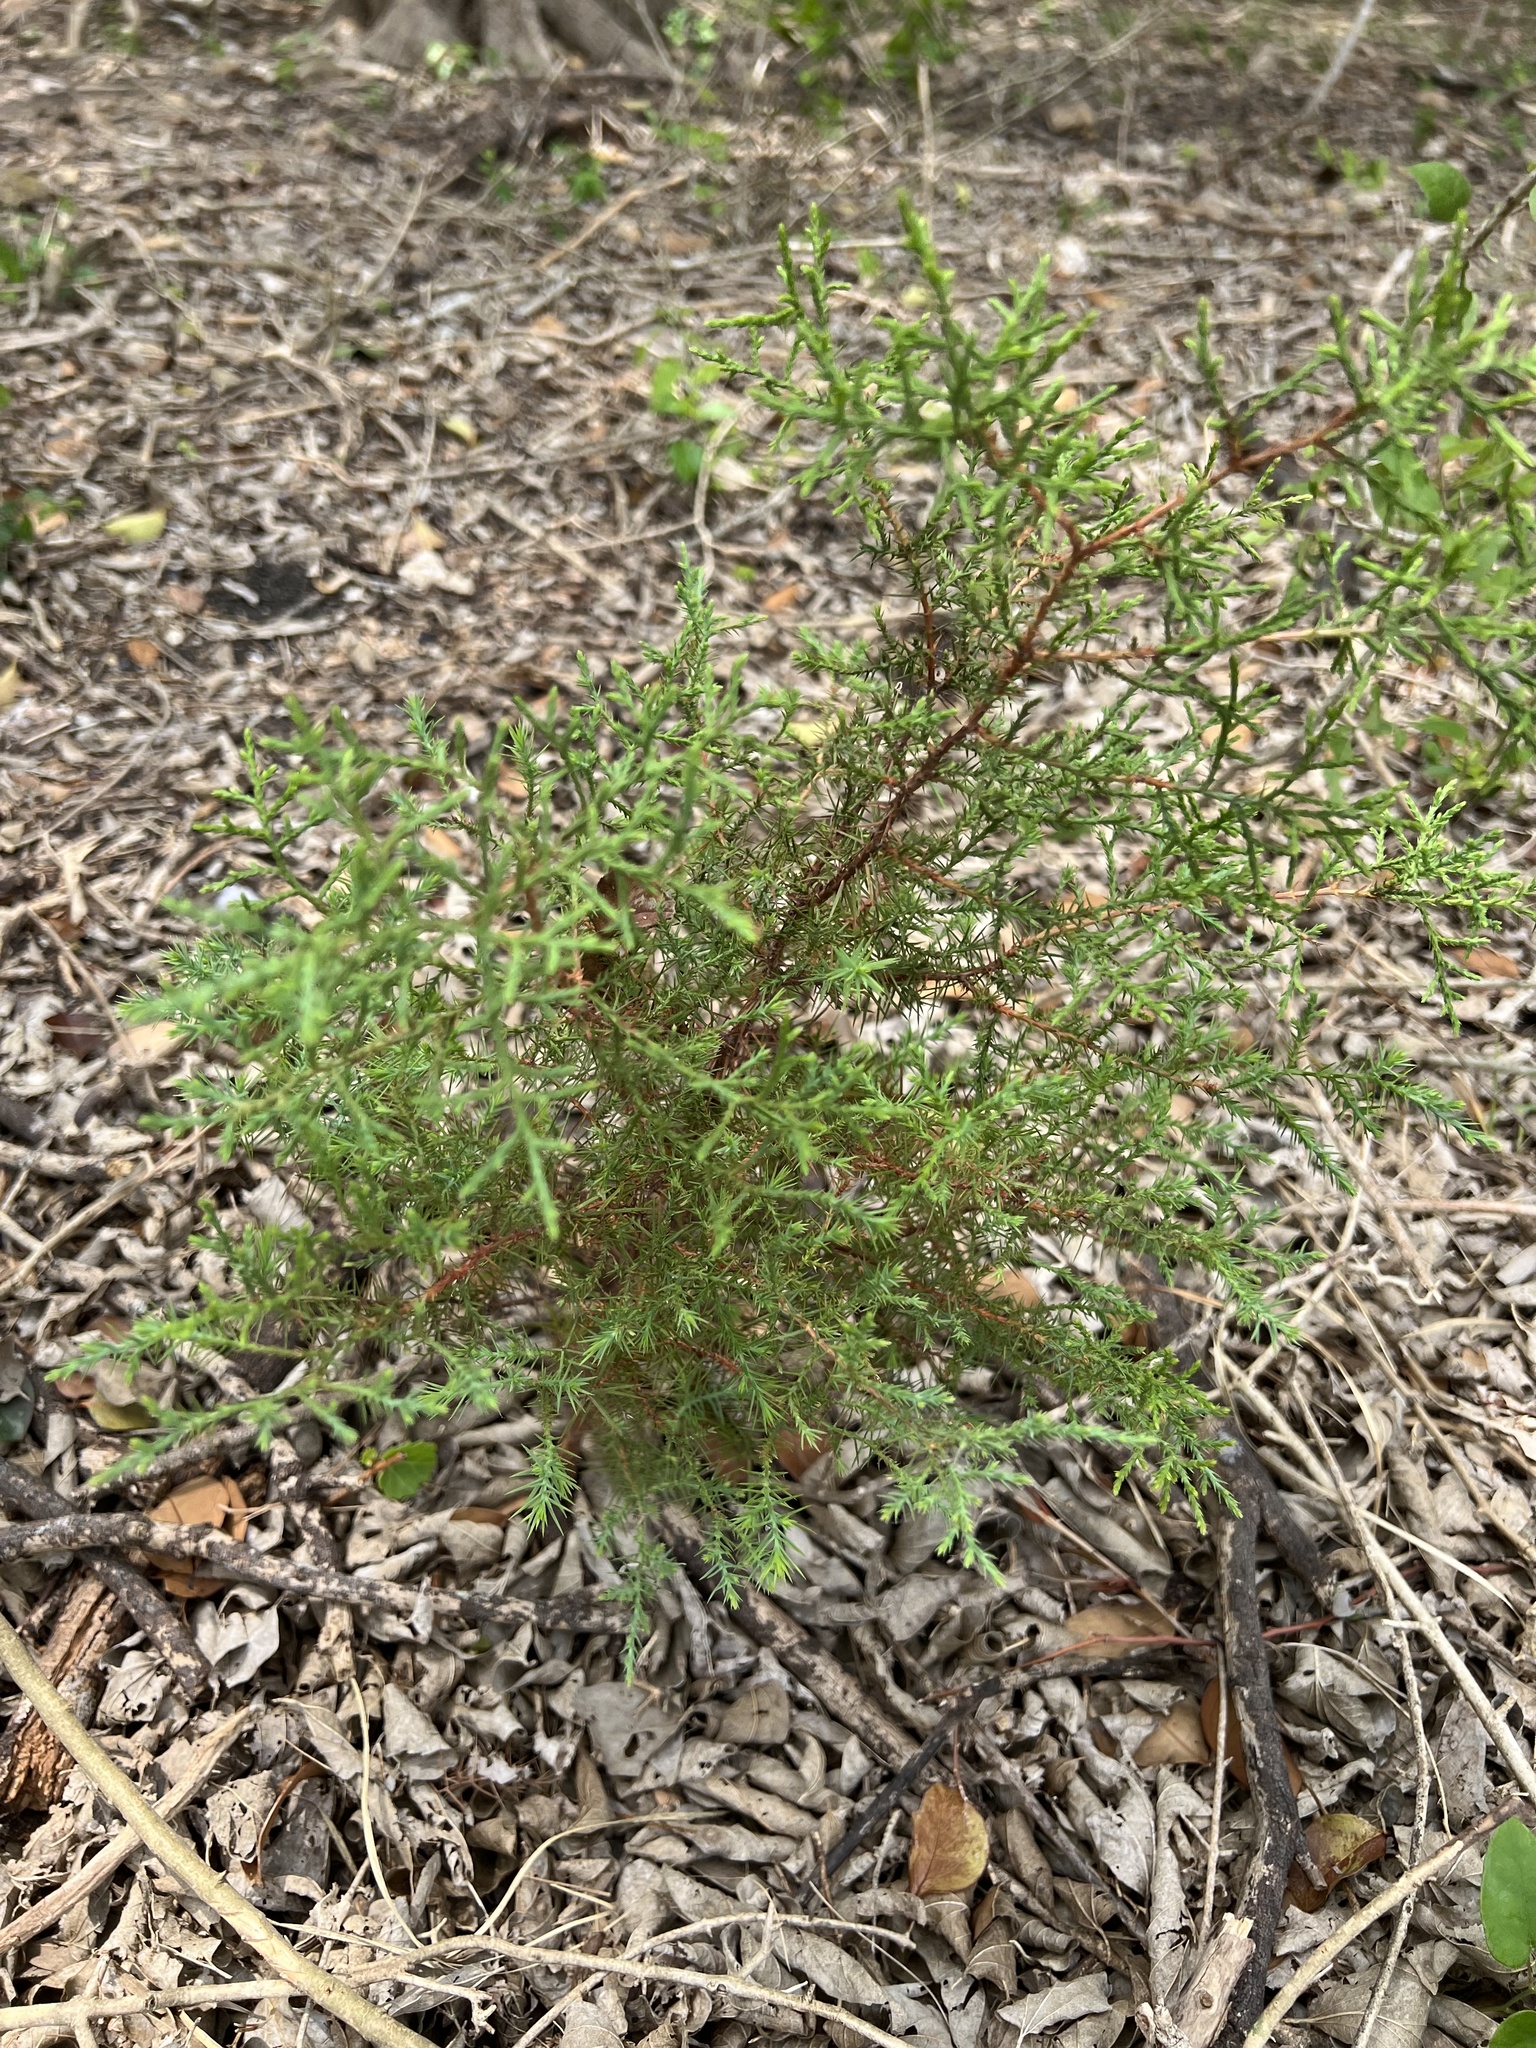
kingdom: Plantae
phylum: Tracheophyta
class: Pinopsida
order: Pinales
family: Cupressaceae
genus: Juniperus
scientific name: Juniperus ashei
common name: Mexican juniper
